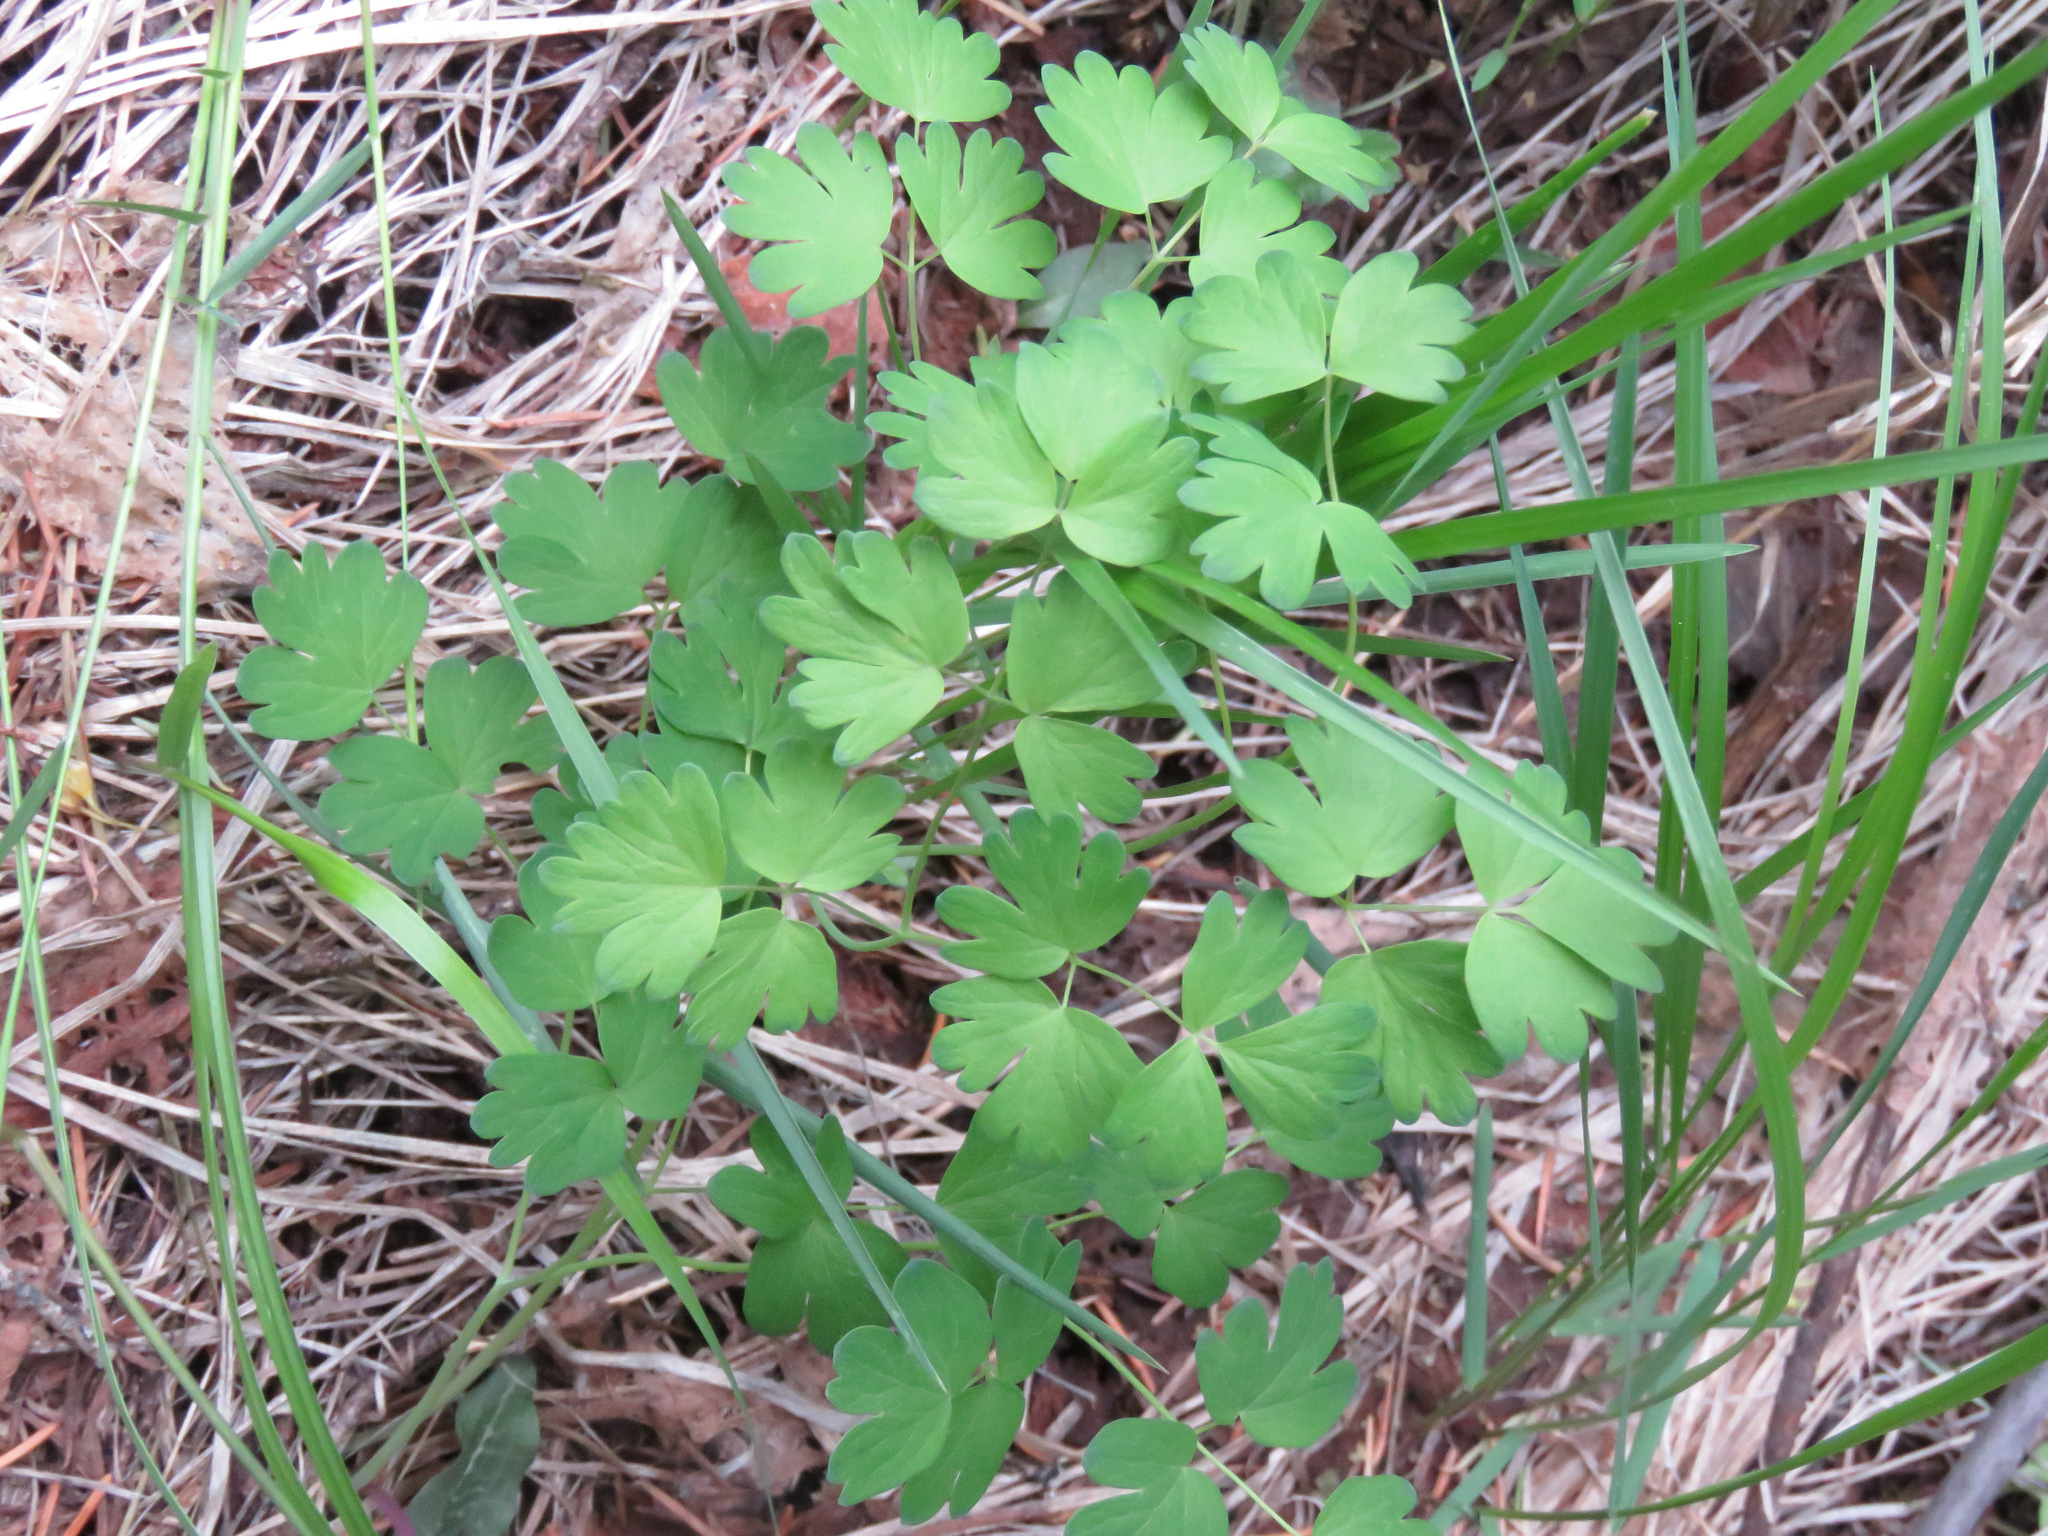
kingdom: Plantae
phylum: Tracheophyta
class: Magnoliopsida
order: Ranunculales
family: Ranunculaceae
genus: Thalictrum
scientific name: Thalictrum occidentale
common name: Western meadow-rue
